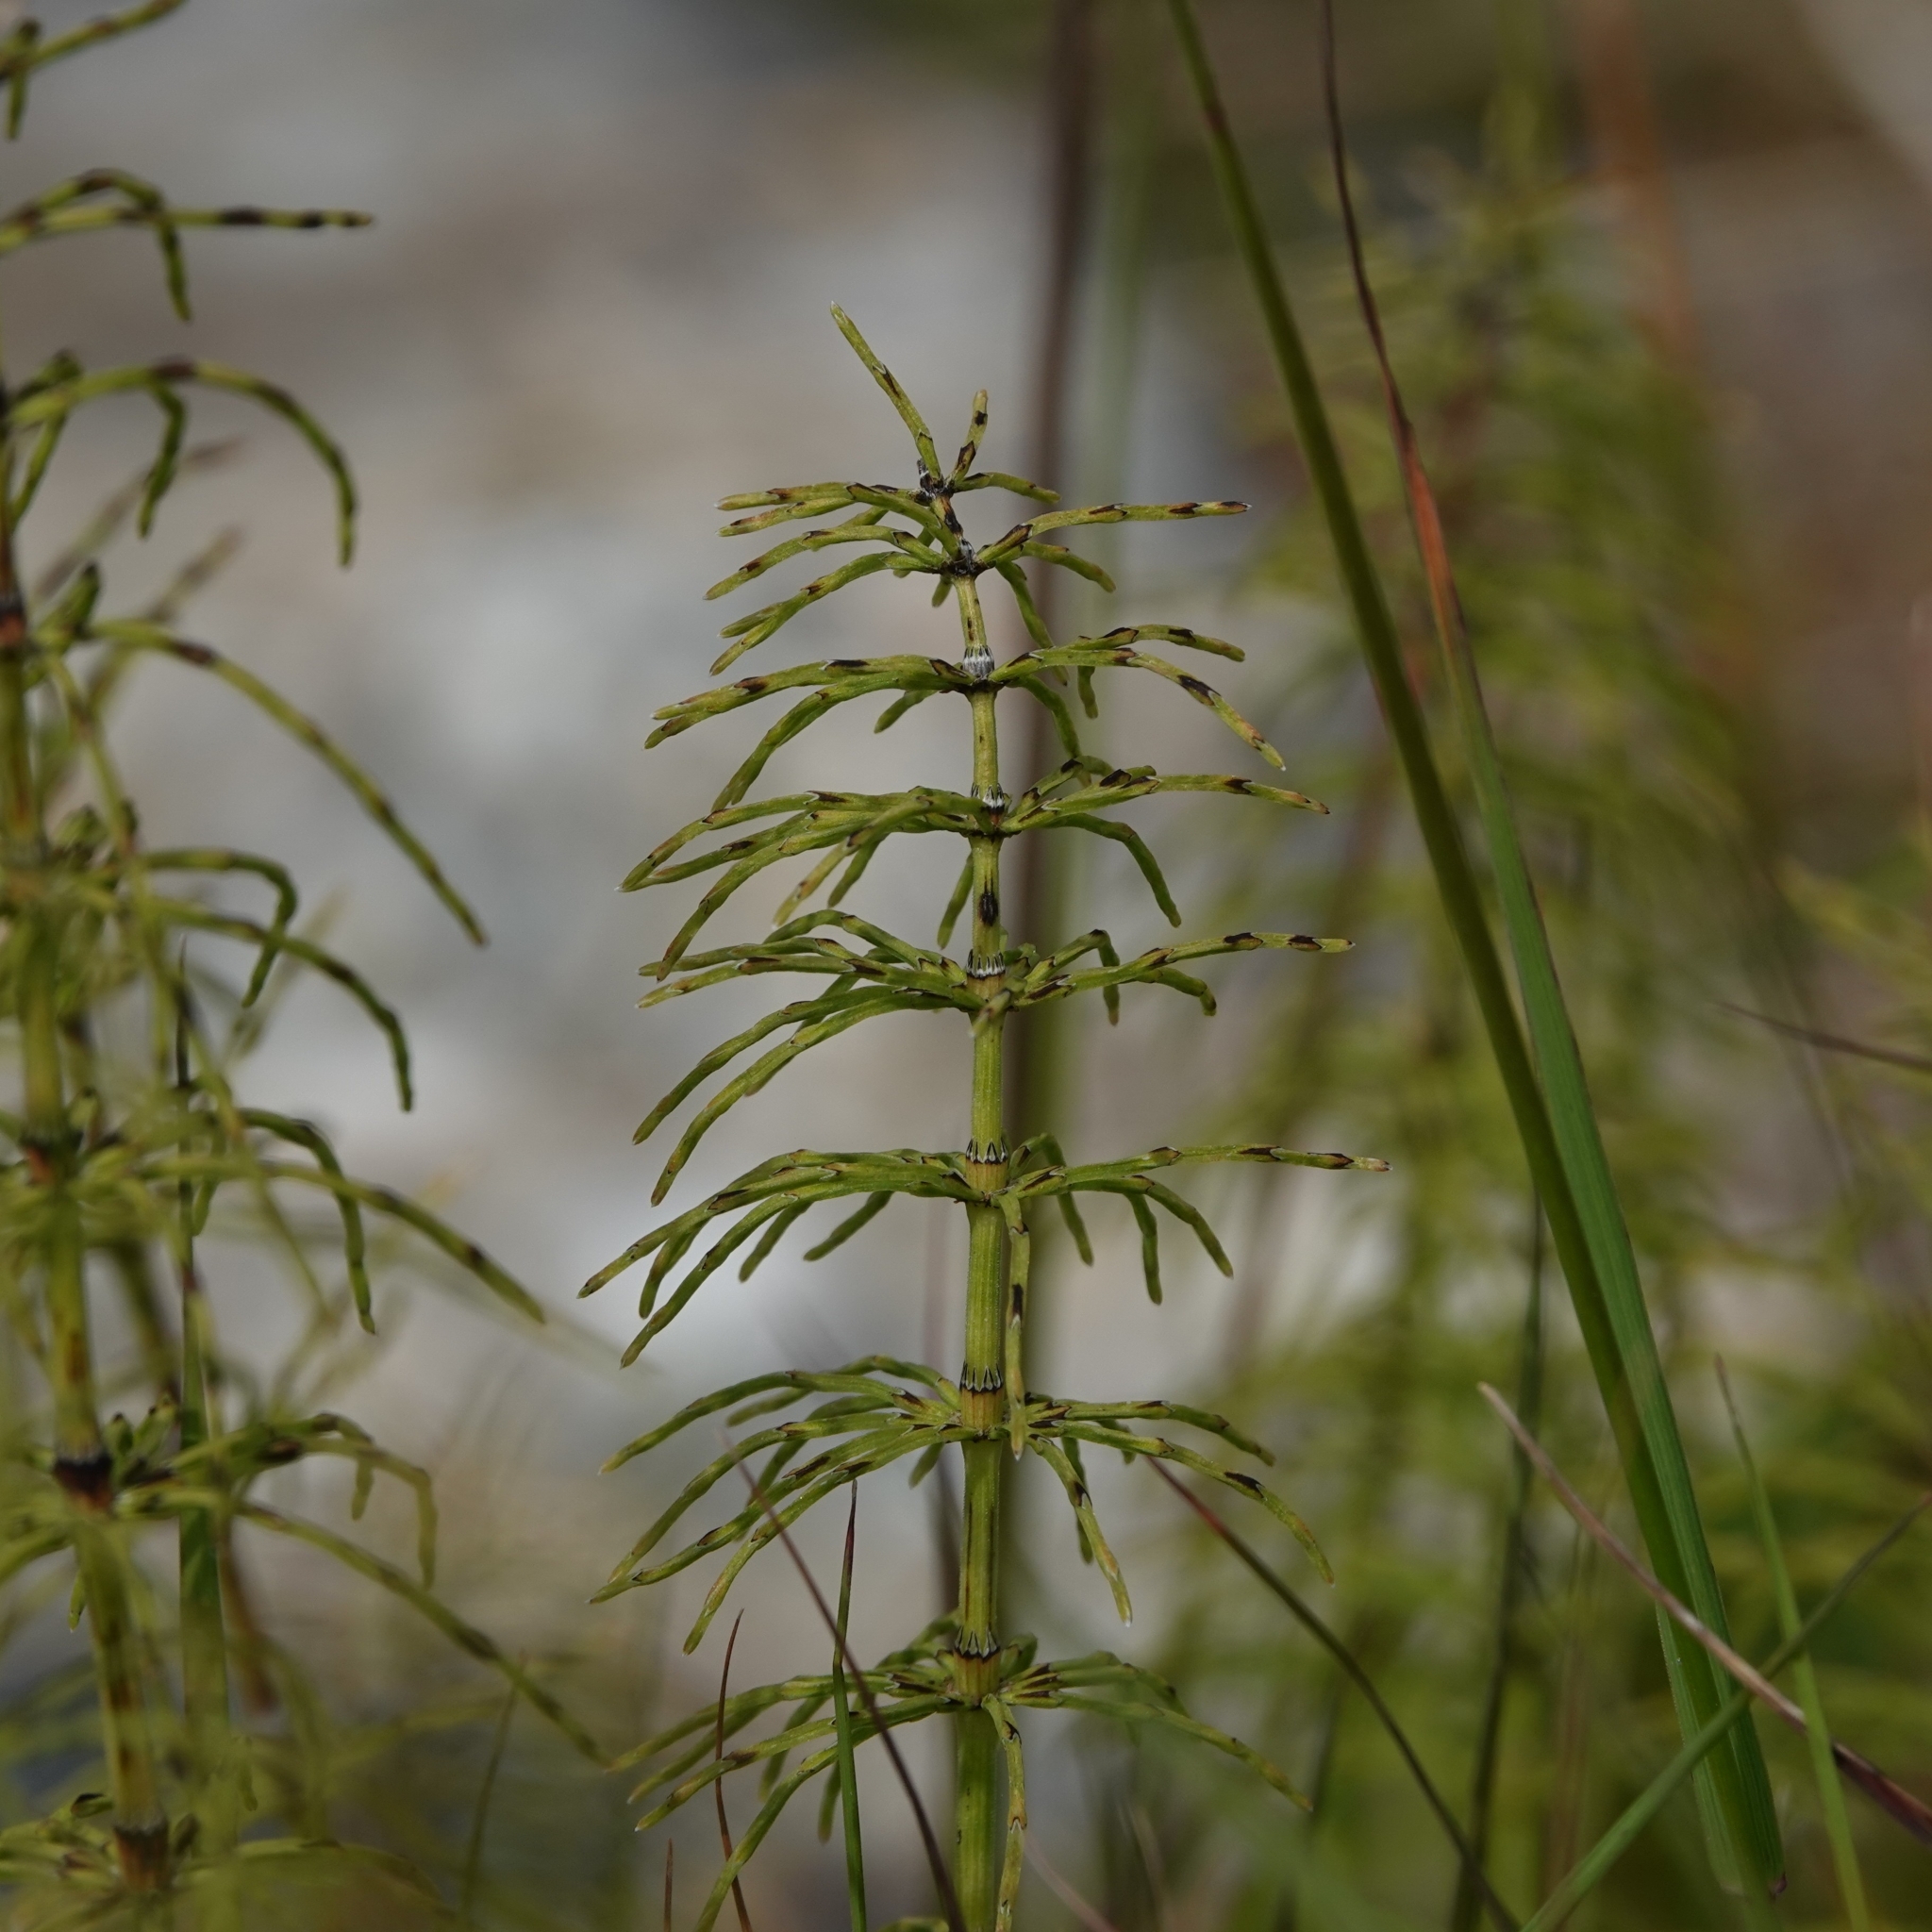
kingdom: Plantae
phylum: Tracheophyta
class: Polypodiopsida
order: Equisetales
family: Equisetaceae
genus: Equisetum
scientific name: Equisetum pratense
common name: Meadow horsetail
